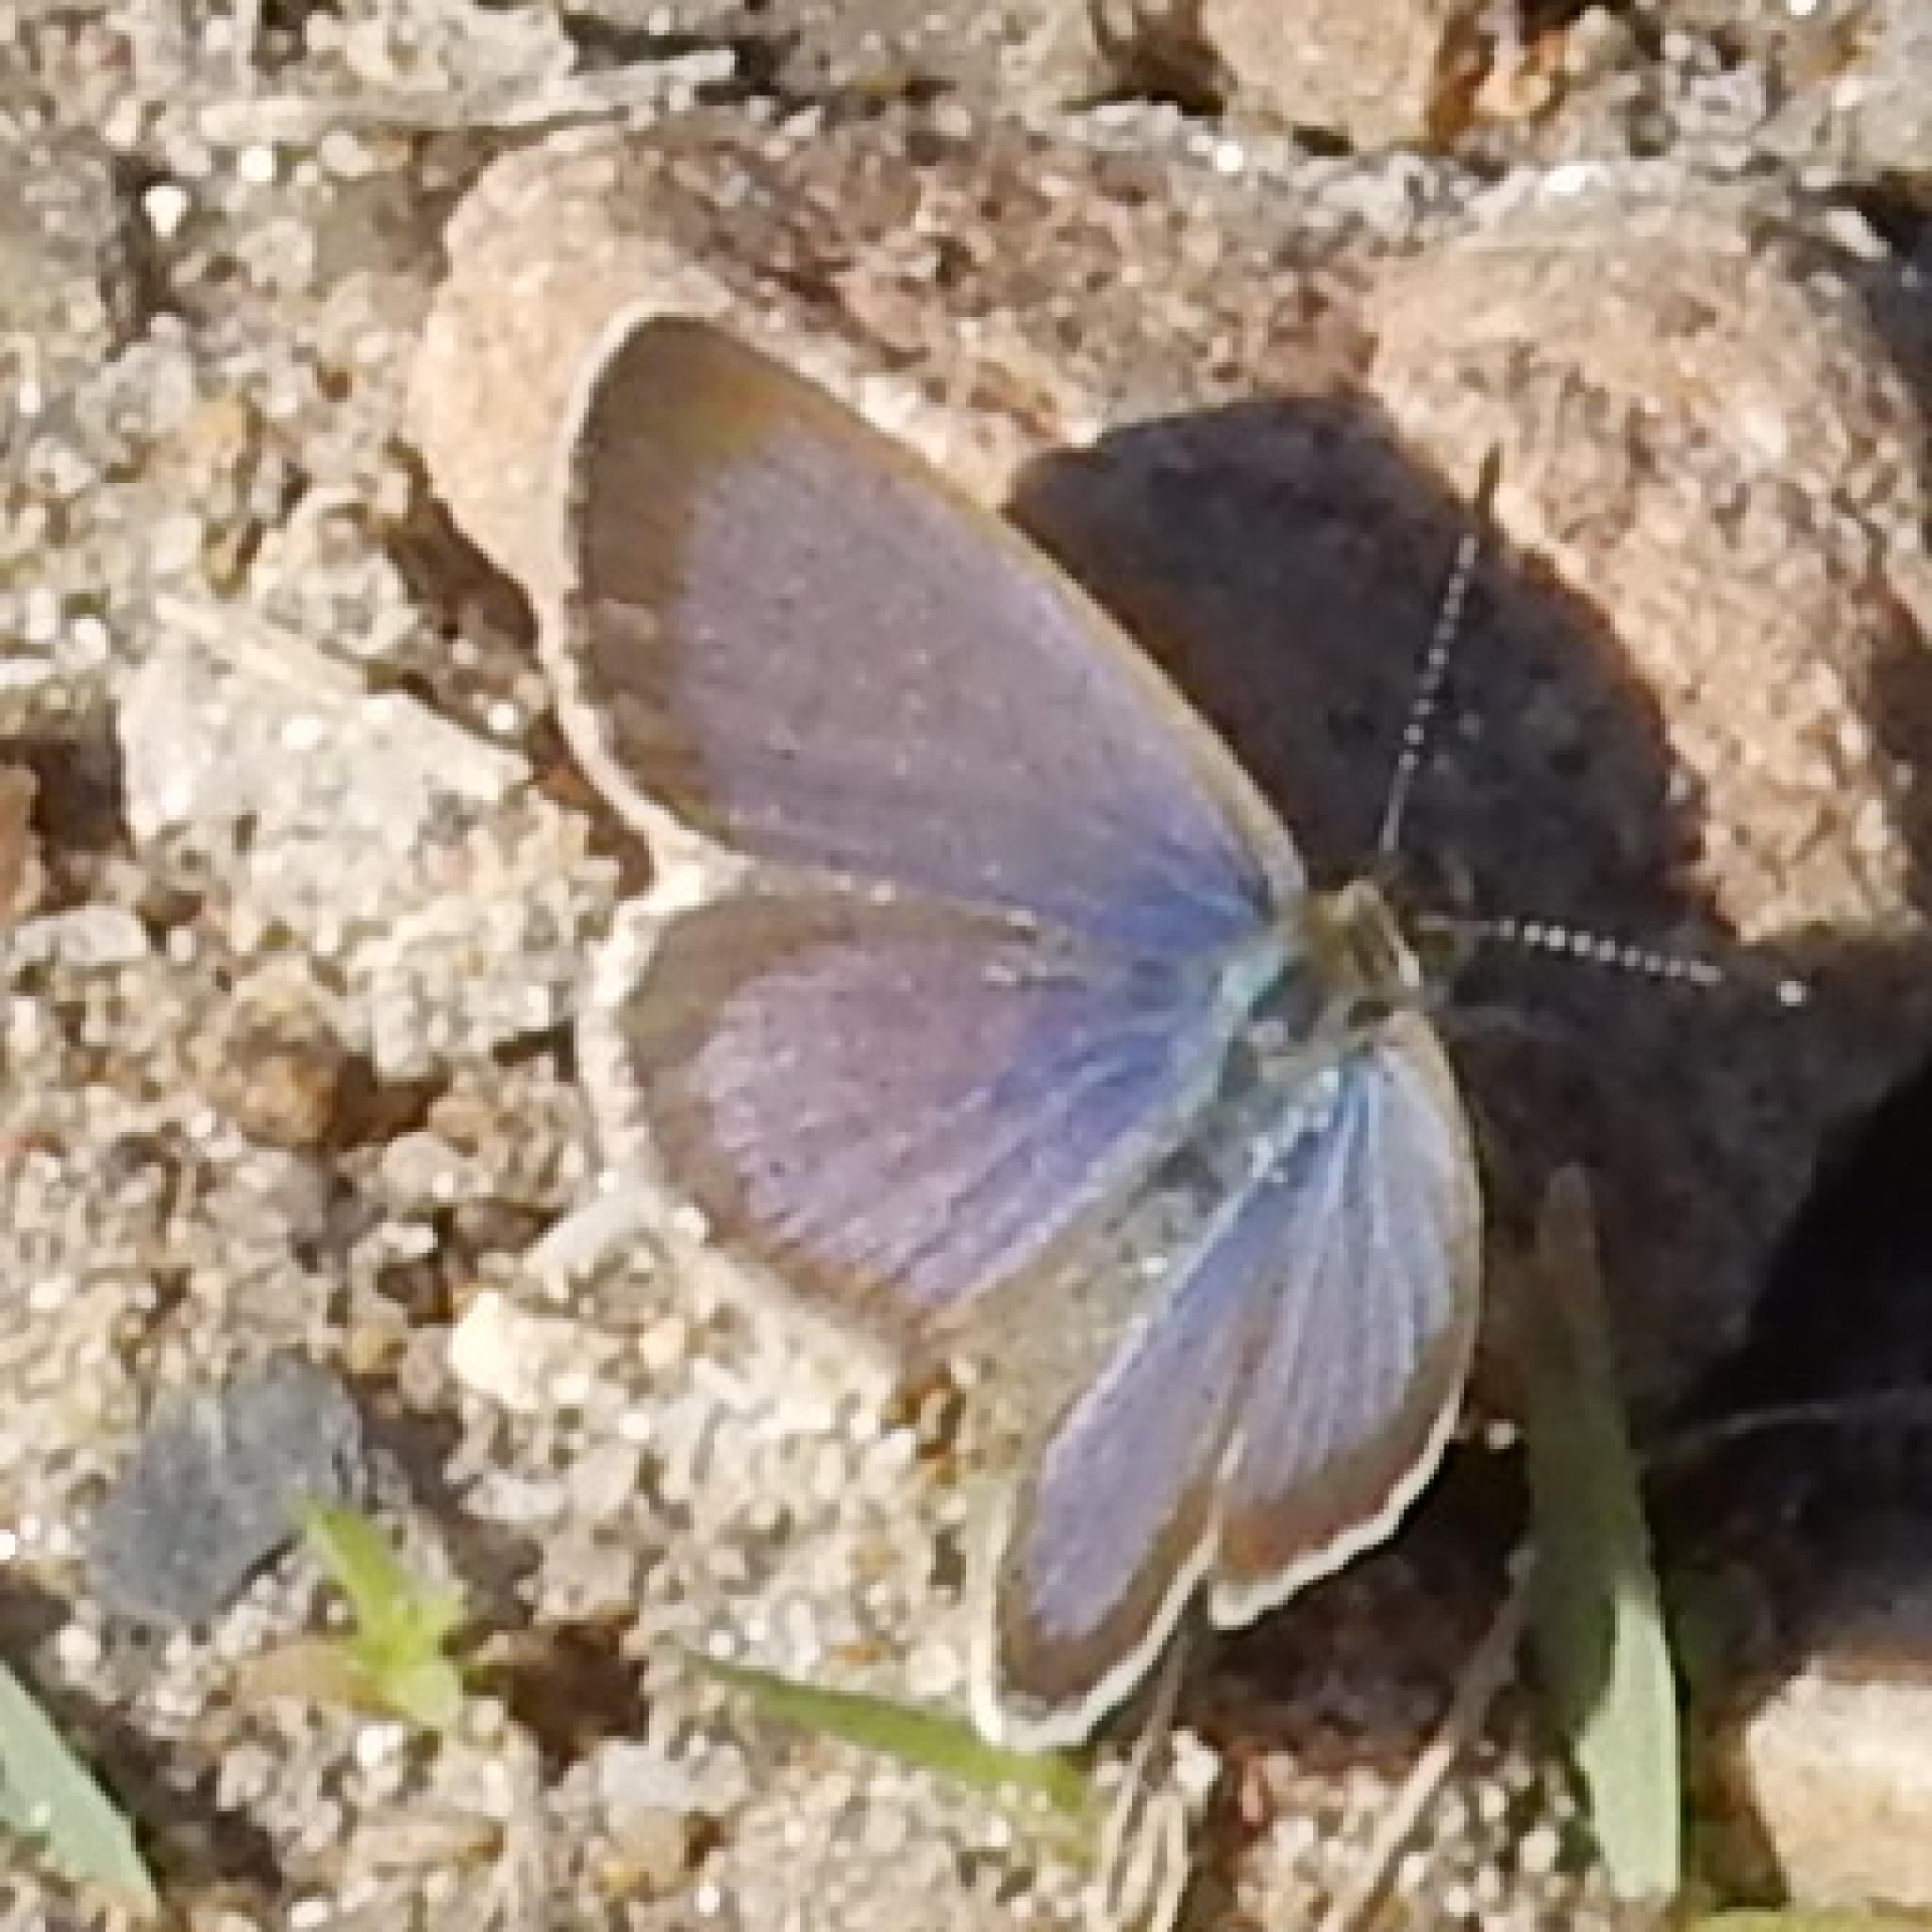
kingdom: Animalia
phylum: Arthropoda
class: Insecta
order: Lepidoptera
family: Lycaenidae
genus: Zizeeria
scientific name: Zizeeria knysna
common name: African grass blue
